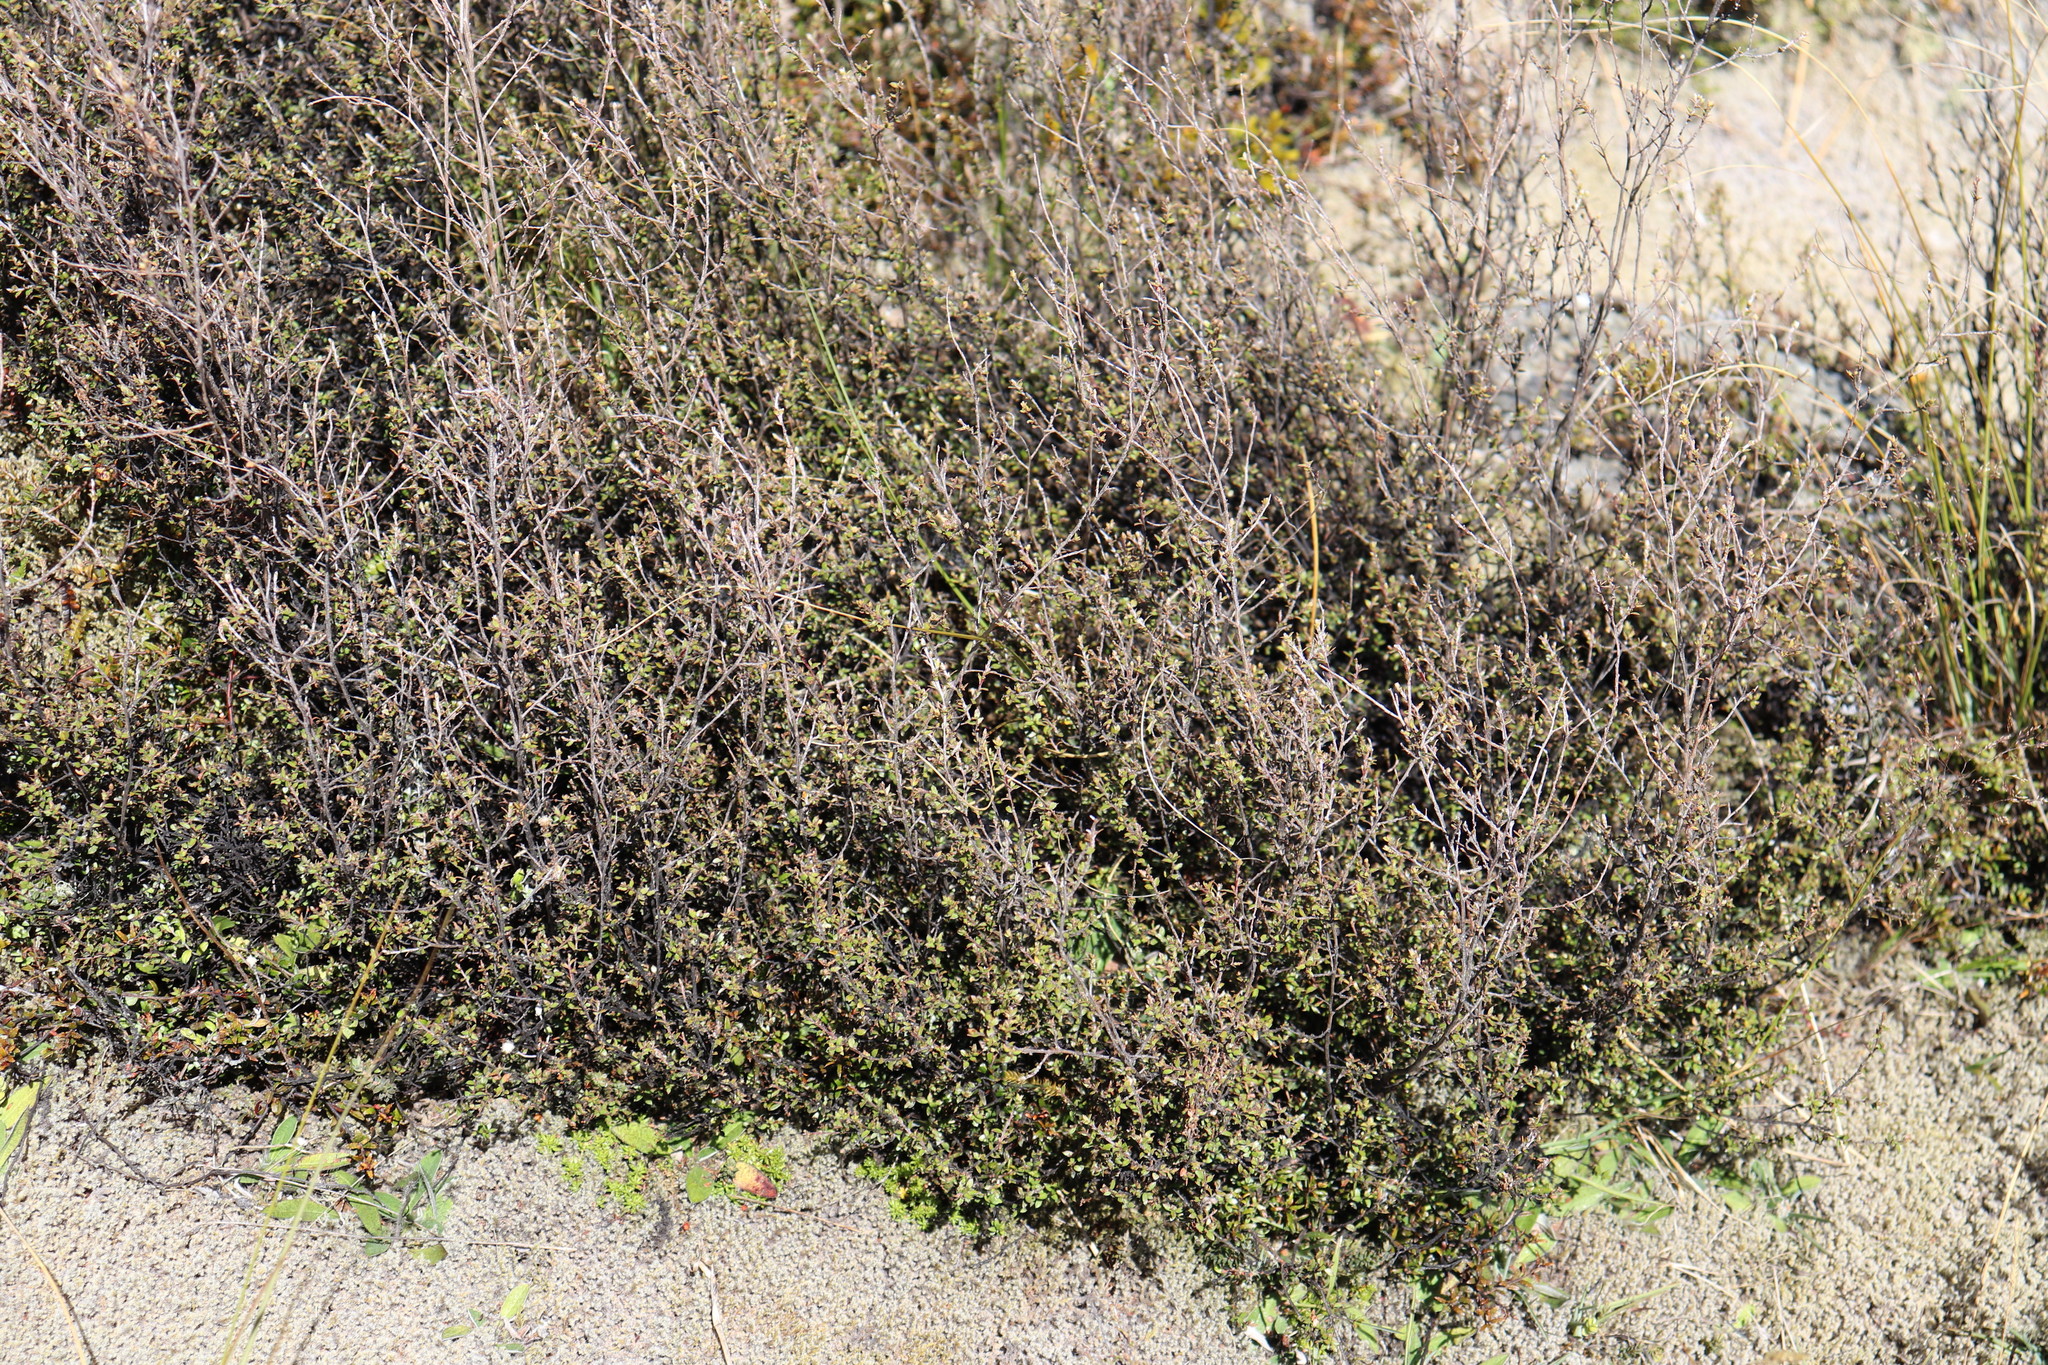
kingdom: Plantae
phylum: Tracheophyta
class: Magnoliopsida
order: Myrtales
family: Myrtaceae
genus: Leptospermum
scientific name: Leptospermum scoparium
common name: Broom tea-tree
